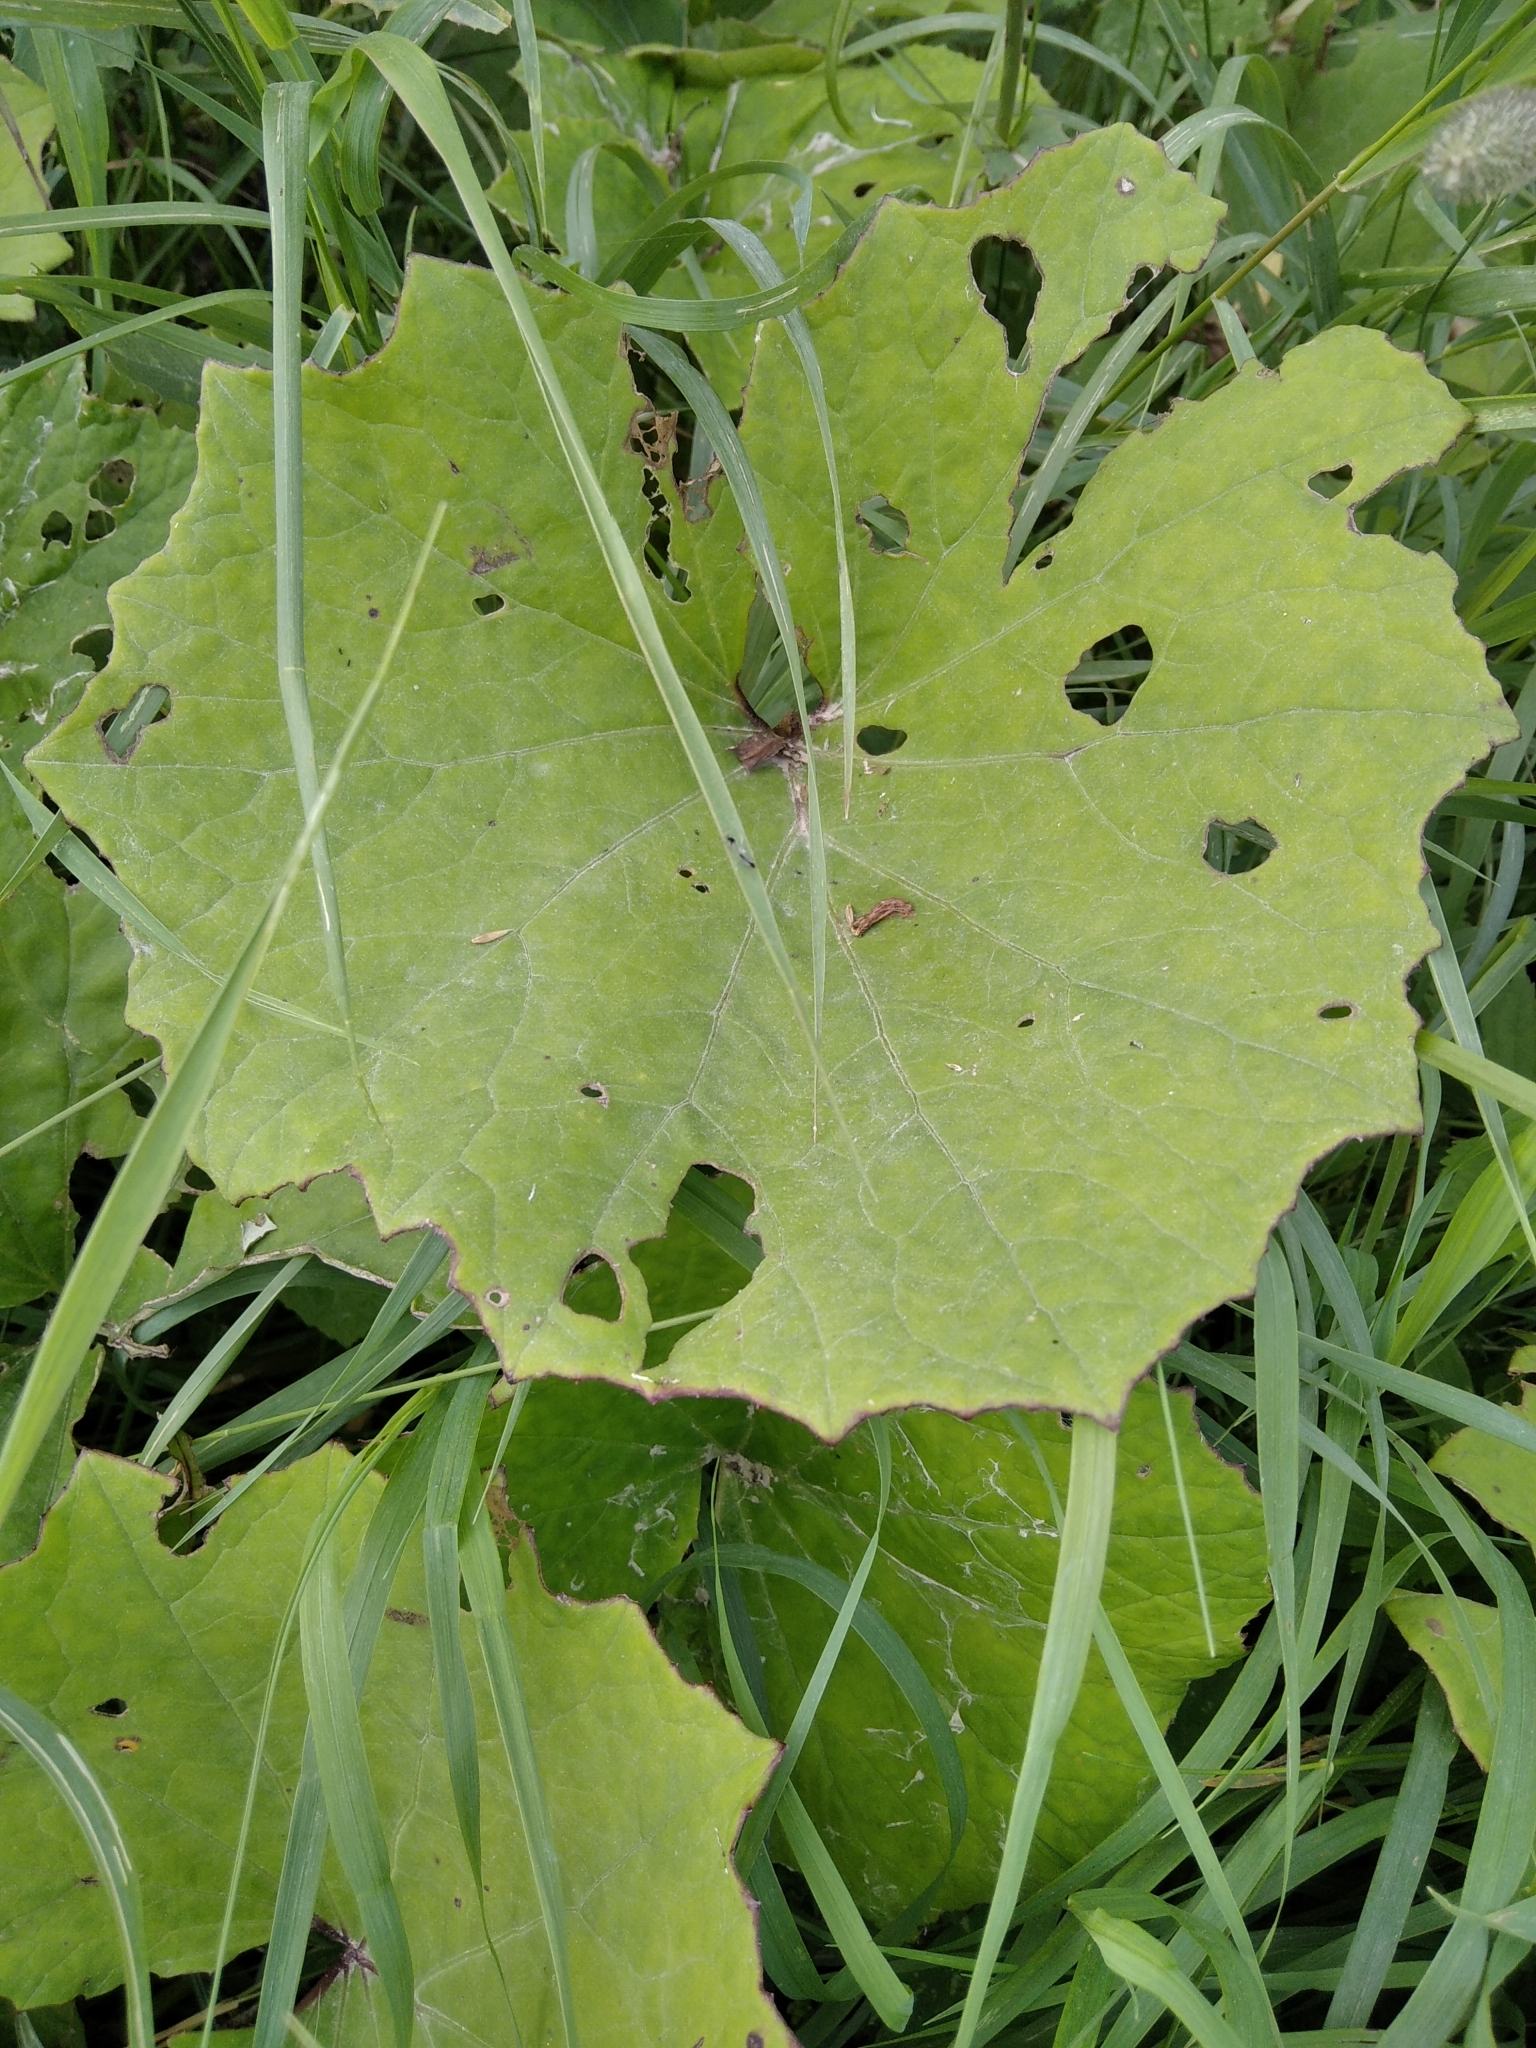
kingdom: Plantae
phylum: Tracheophyta
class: Magnoliopsida
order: Asterales
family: Asteraceae
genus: Tussilago
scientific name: Tussilago farfara
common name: Coltsfoot
